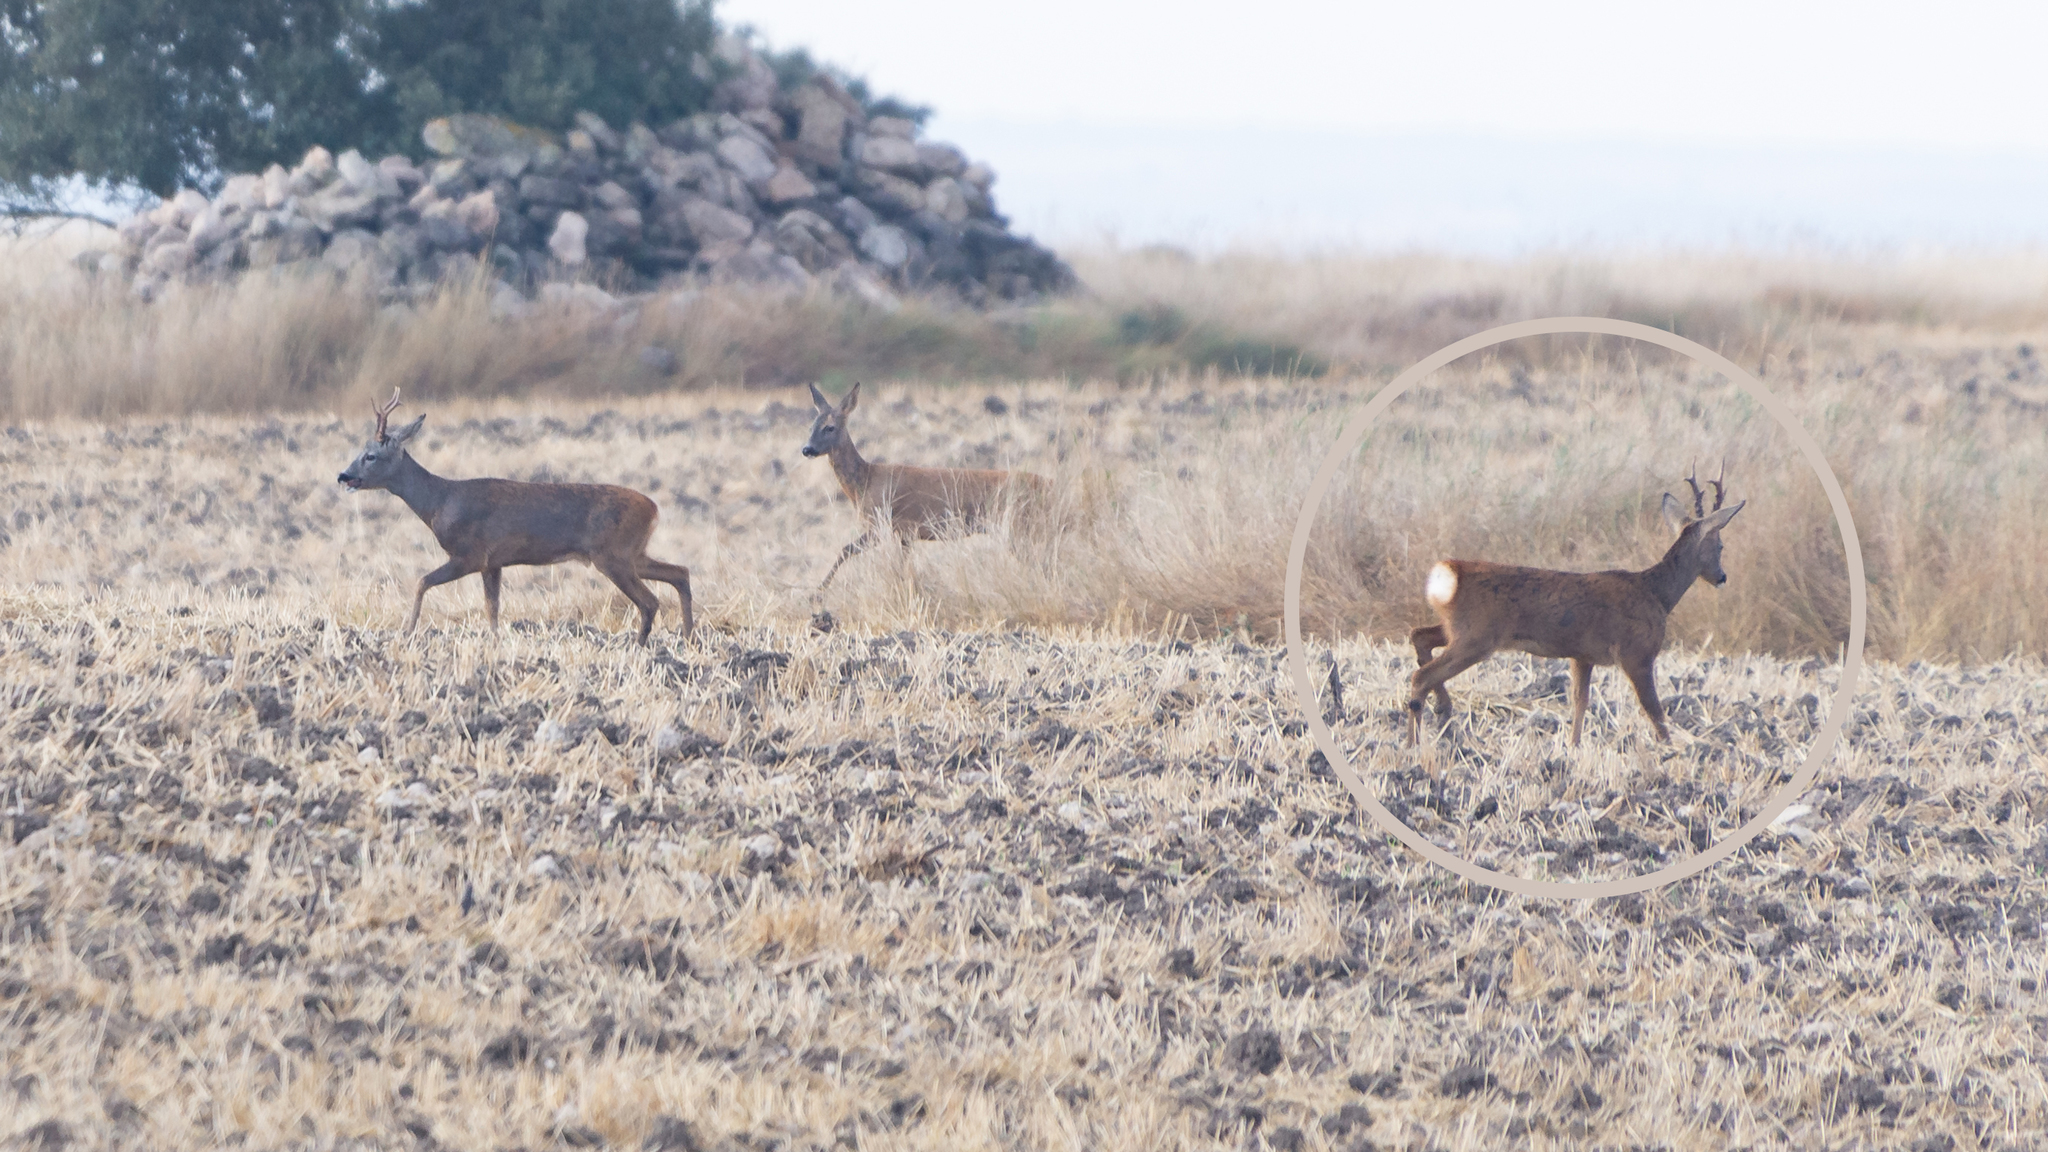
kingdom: Animalia
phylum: Chordata
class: Mammalia
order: Artiodactyla
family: Cervidae
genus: Capreolus
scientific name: Capreolus capreolus
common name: Western roe deer
